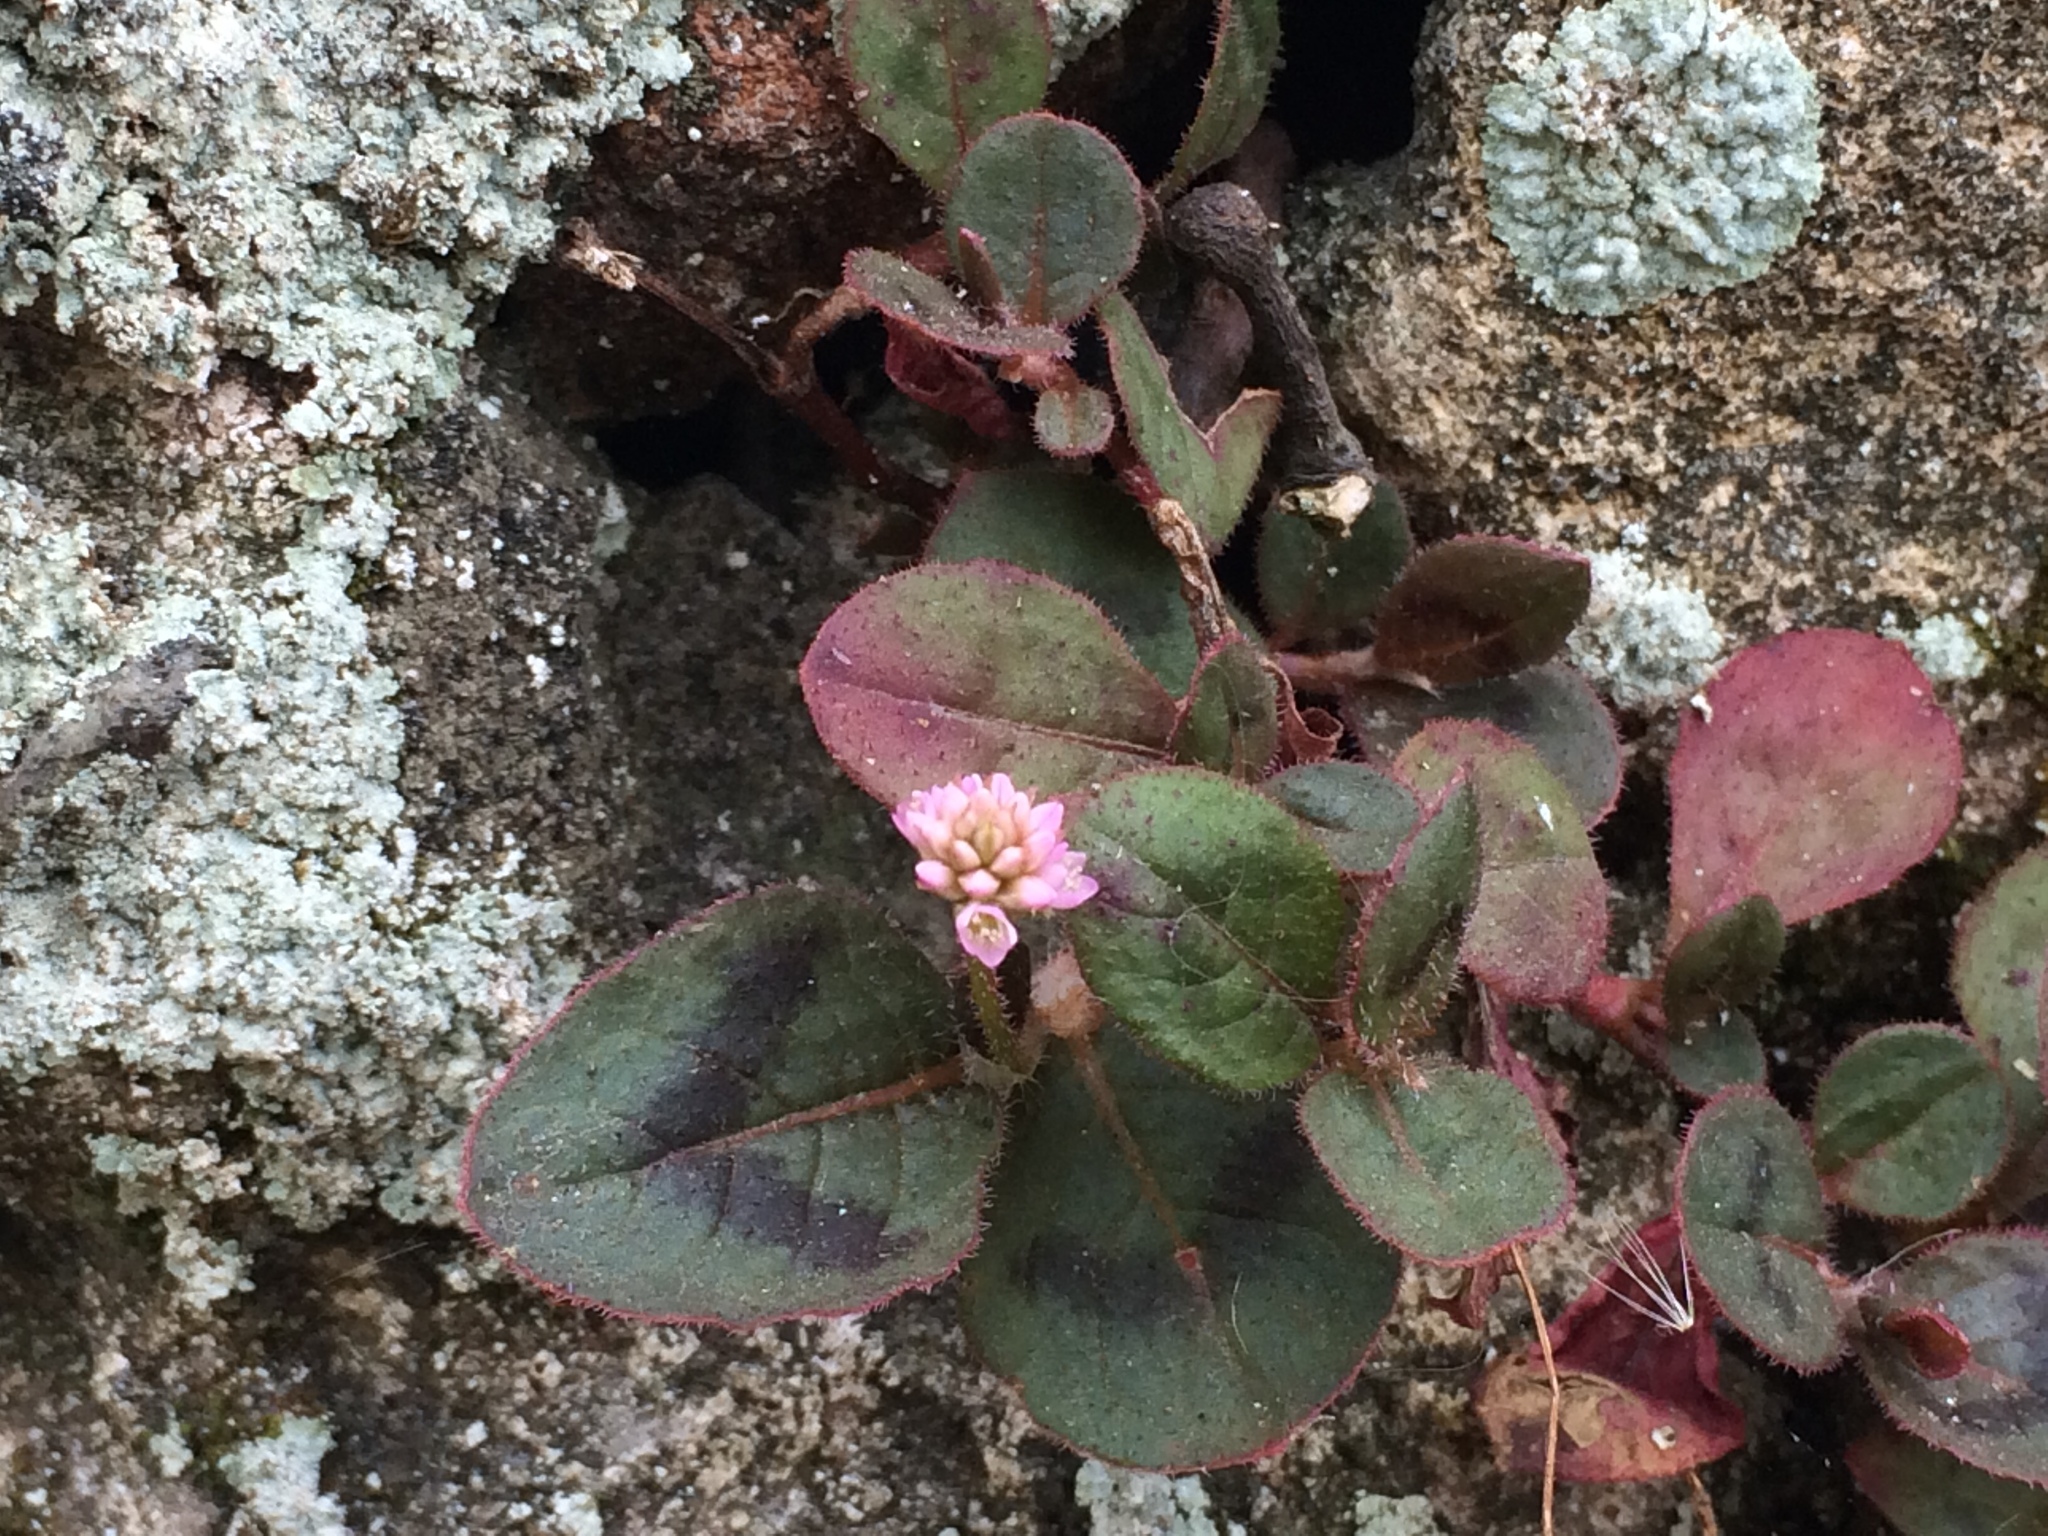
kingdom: Plantae
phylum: Tracheophyta
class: Magnoliopsida
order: Caryophyllales
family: Polygonaceae
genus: Persicaria
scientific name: Persicaria capitata
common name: Pinkhead smartweed
